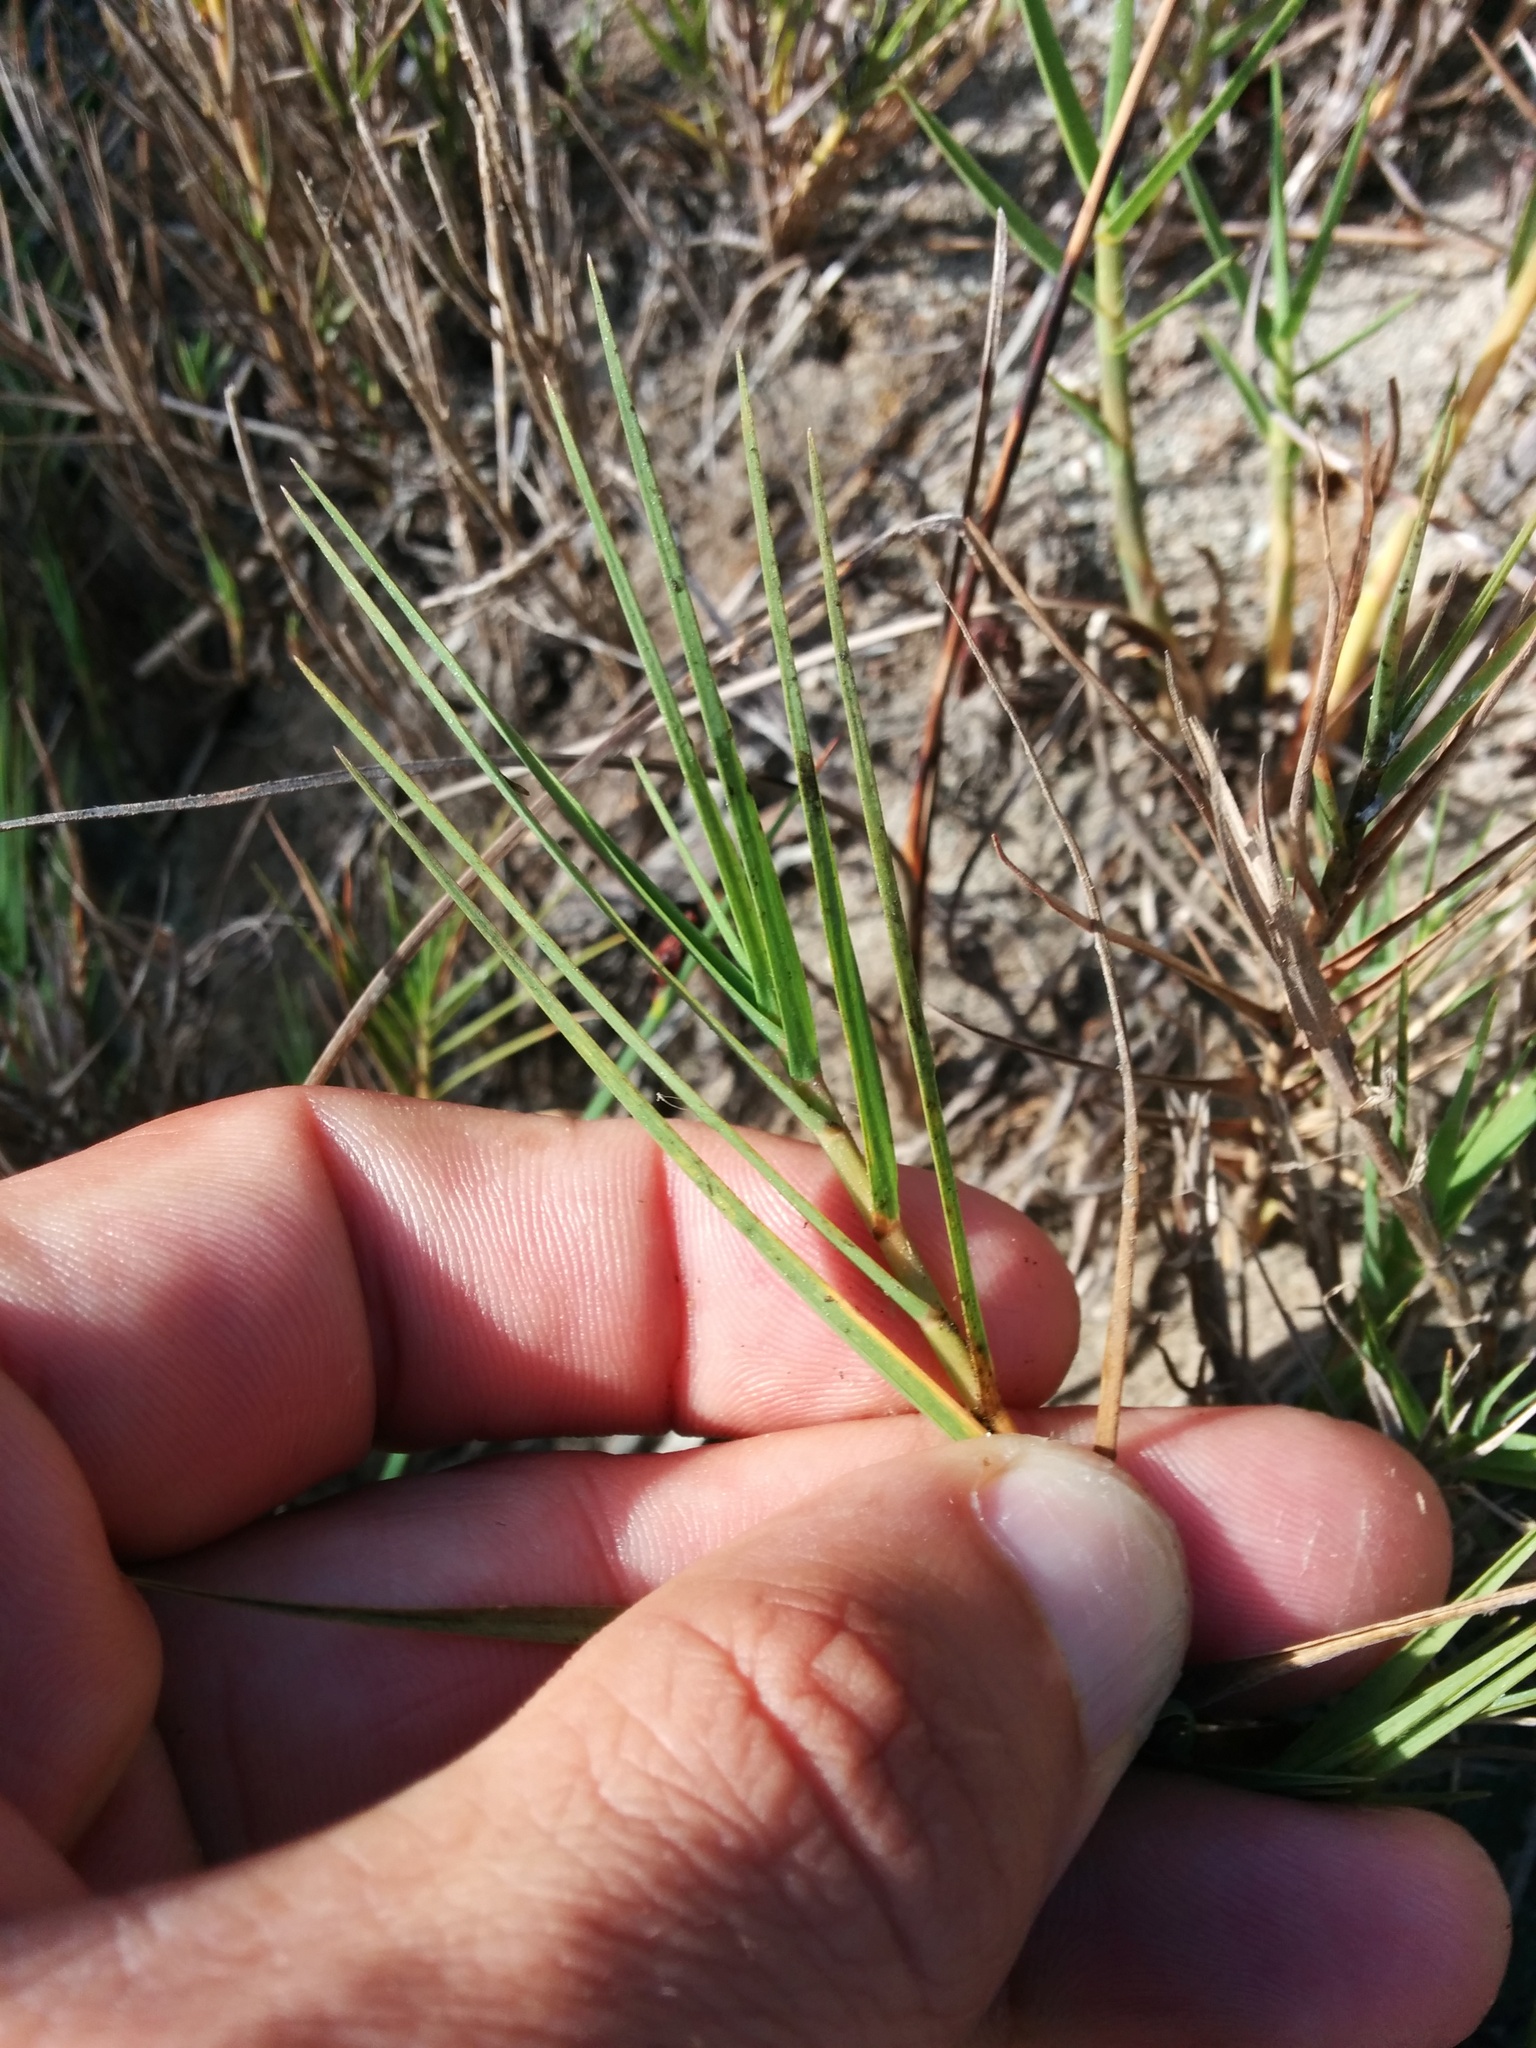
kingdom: Plantae
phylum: Tracheophyta
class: Liliopsida
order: Poales
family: Poaceae
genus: Distichlis
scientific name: Distichlis spicata
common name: Saltgrass
